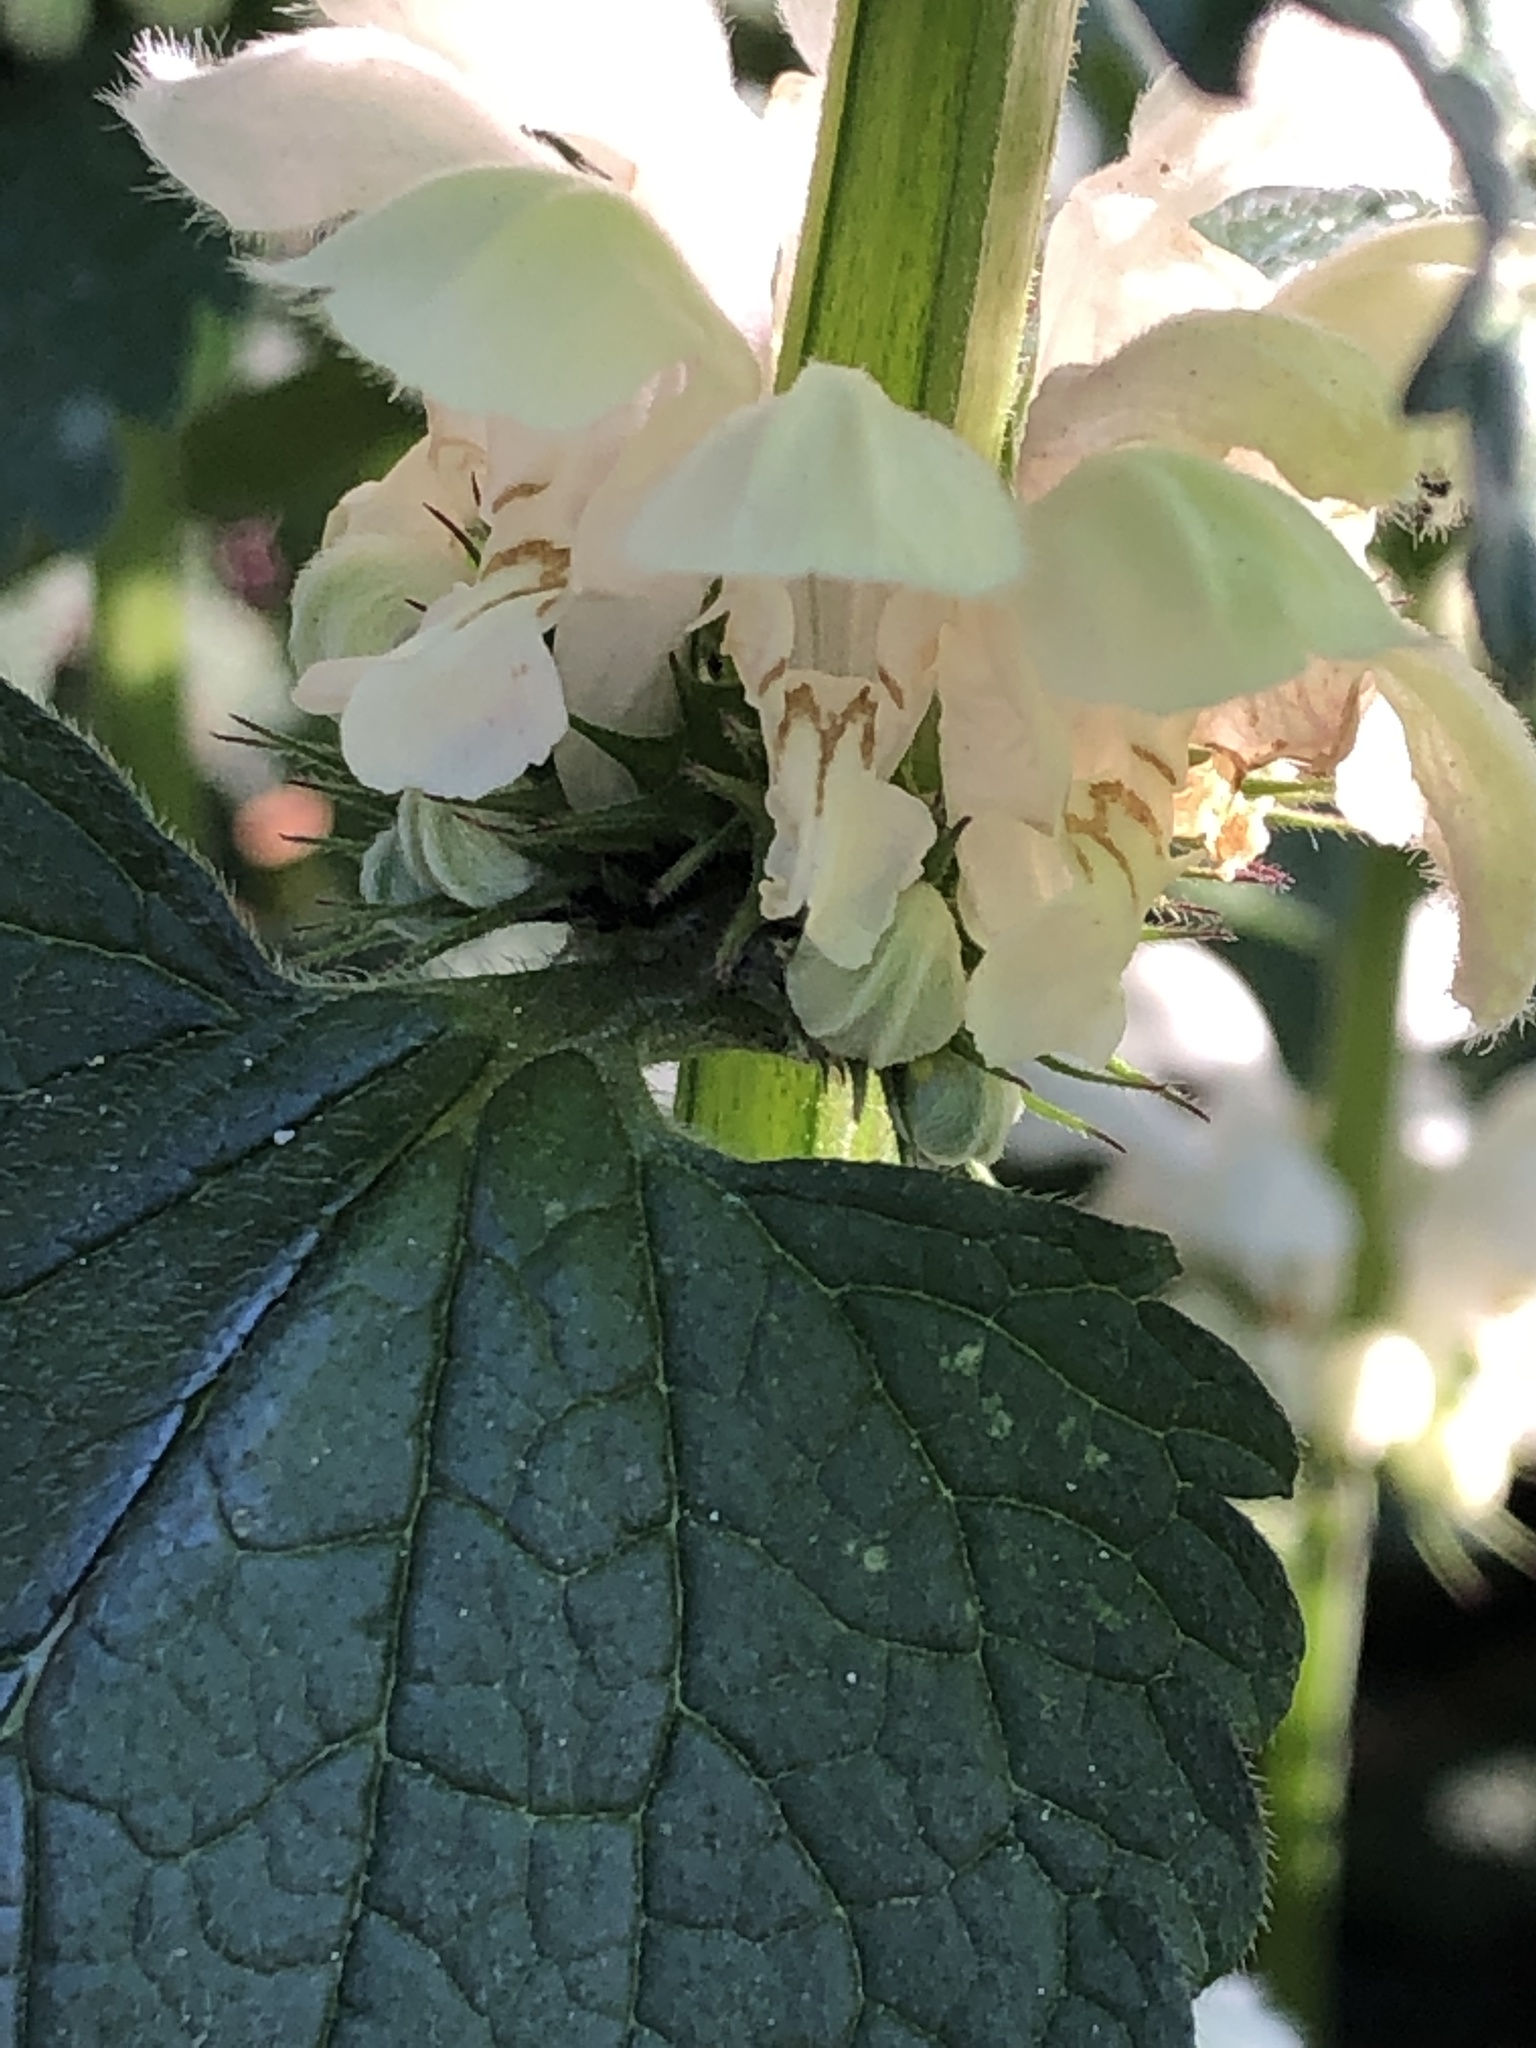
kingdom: Plantae
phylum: Tracheophyta
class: Magnoliopsida
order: Lamiales
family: Lamiaceae
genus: Lamium
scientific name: Lamium album
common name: White dead-nettle
